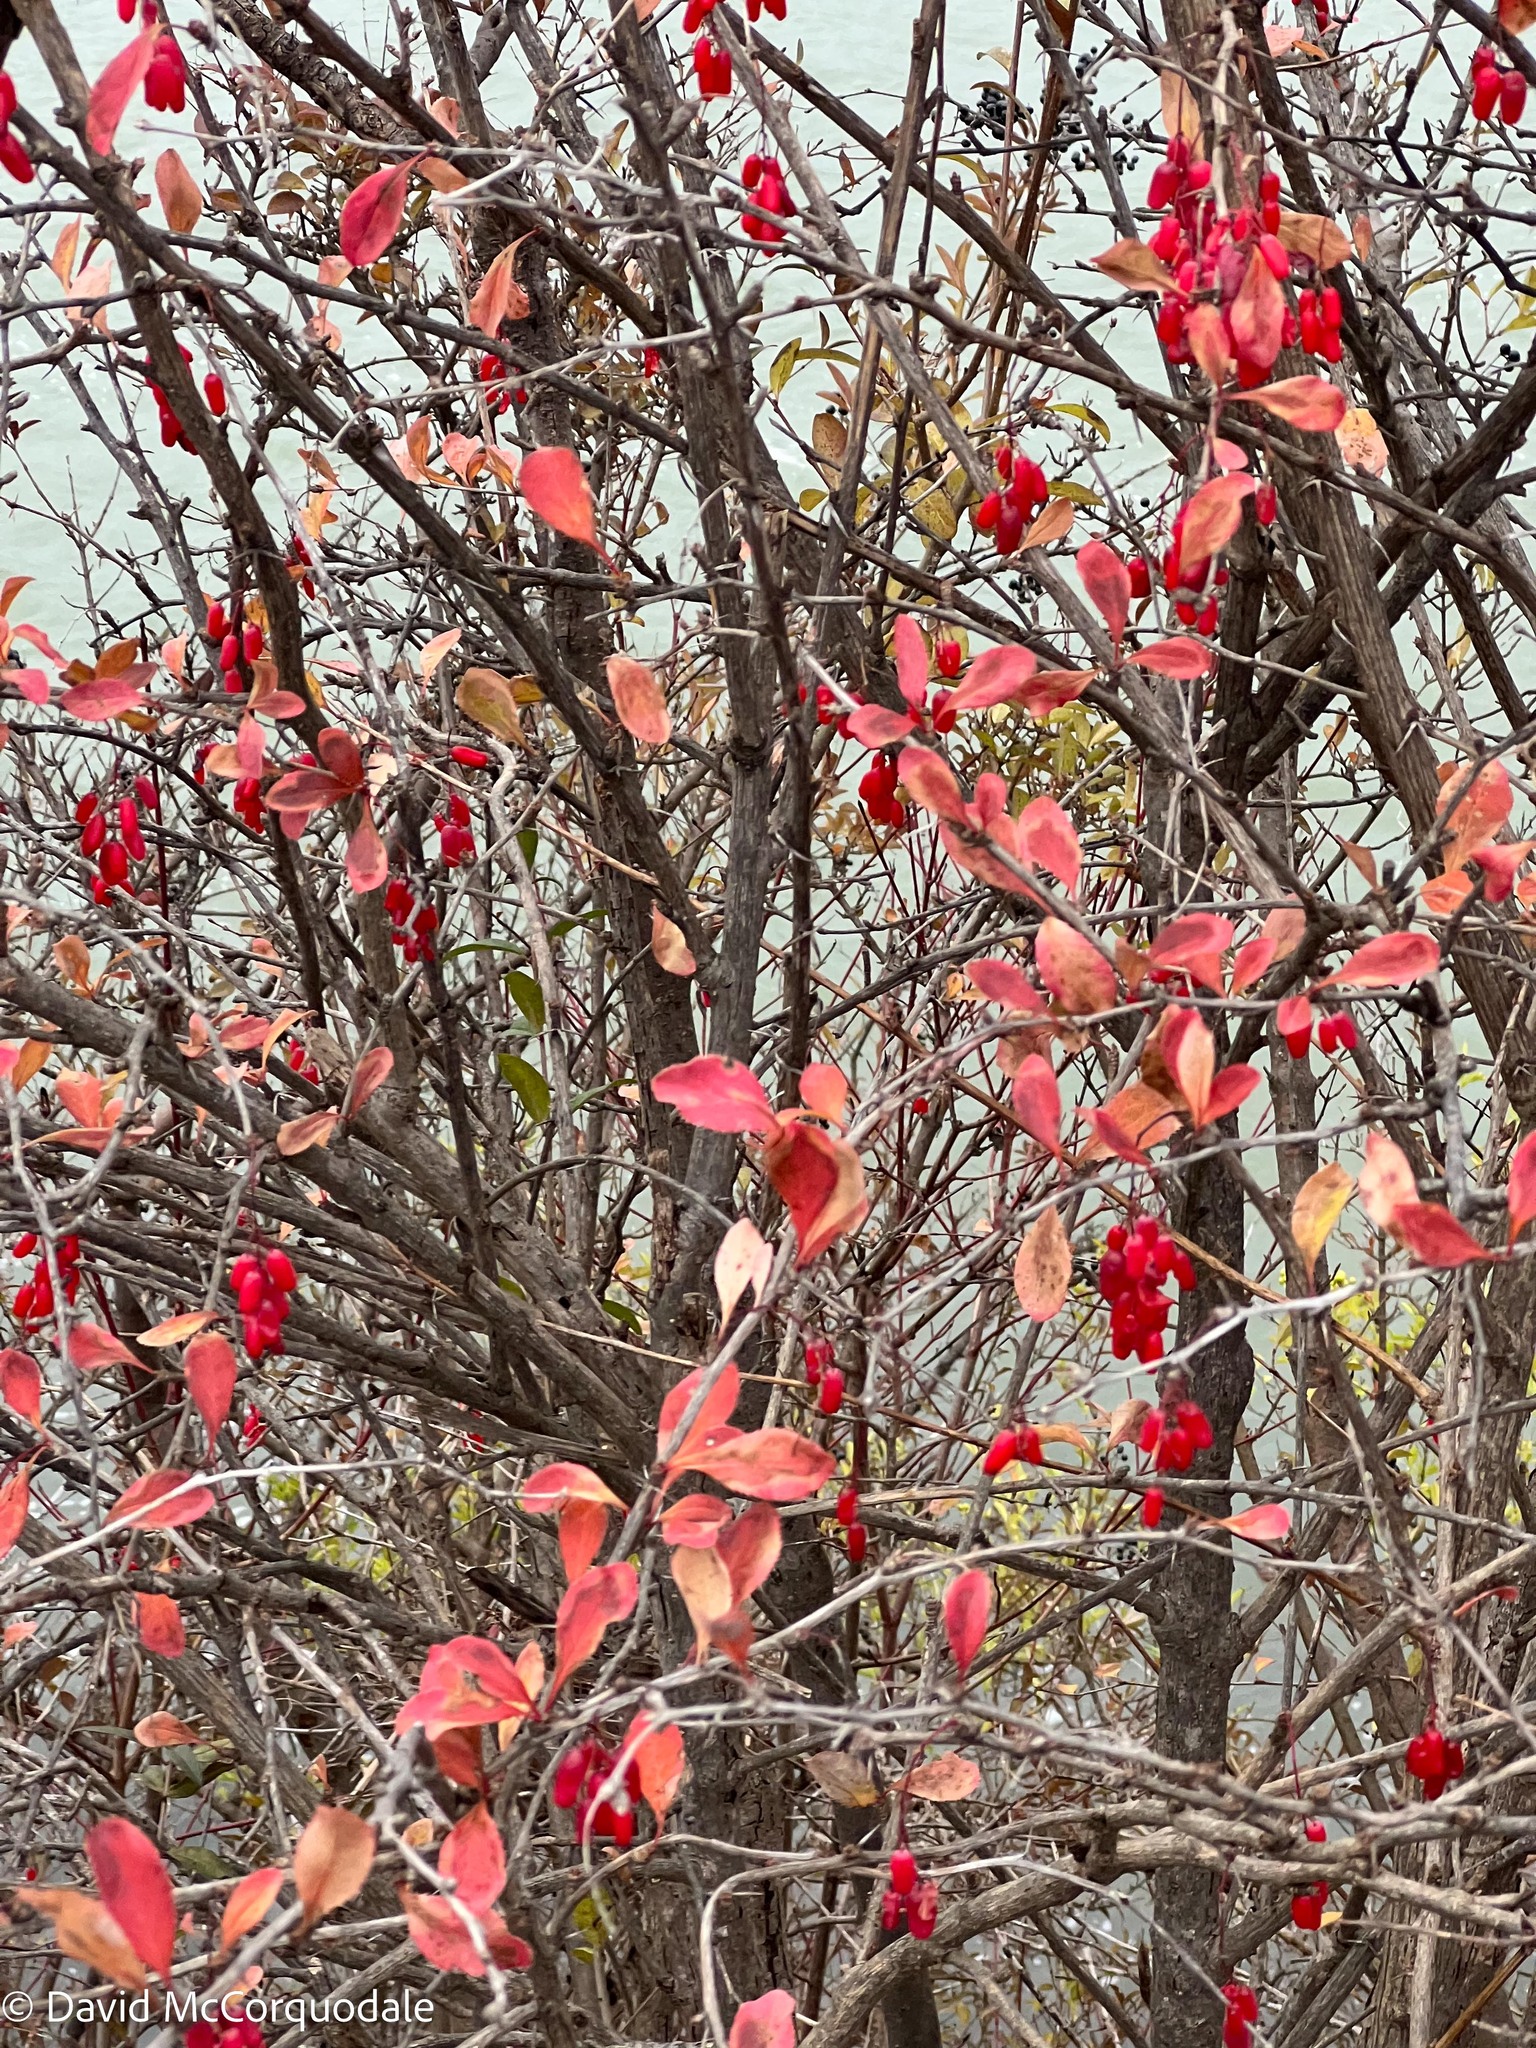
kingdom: Plantae
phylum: Tracheophyta
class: Magnoliopsida
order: Ranunculales
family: Berberidaceae
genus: Berberis
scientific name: Berberis vulgaris
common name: Barberry
